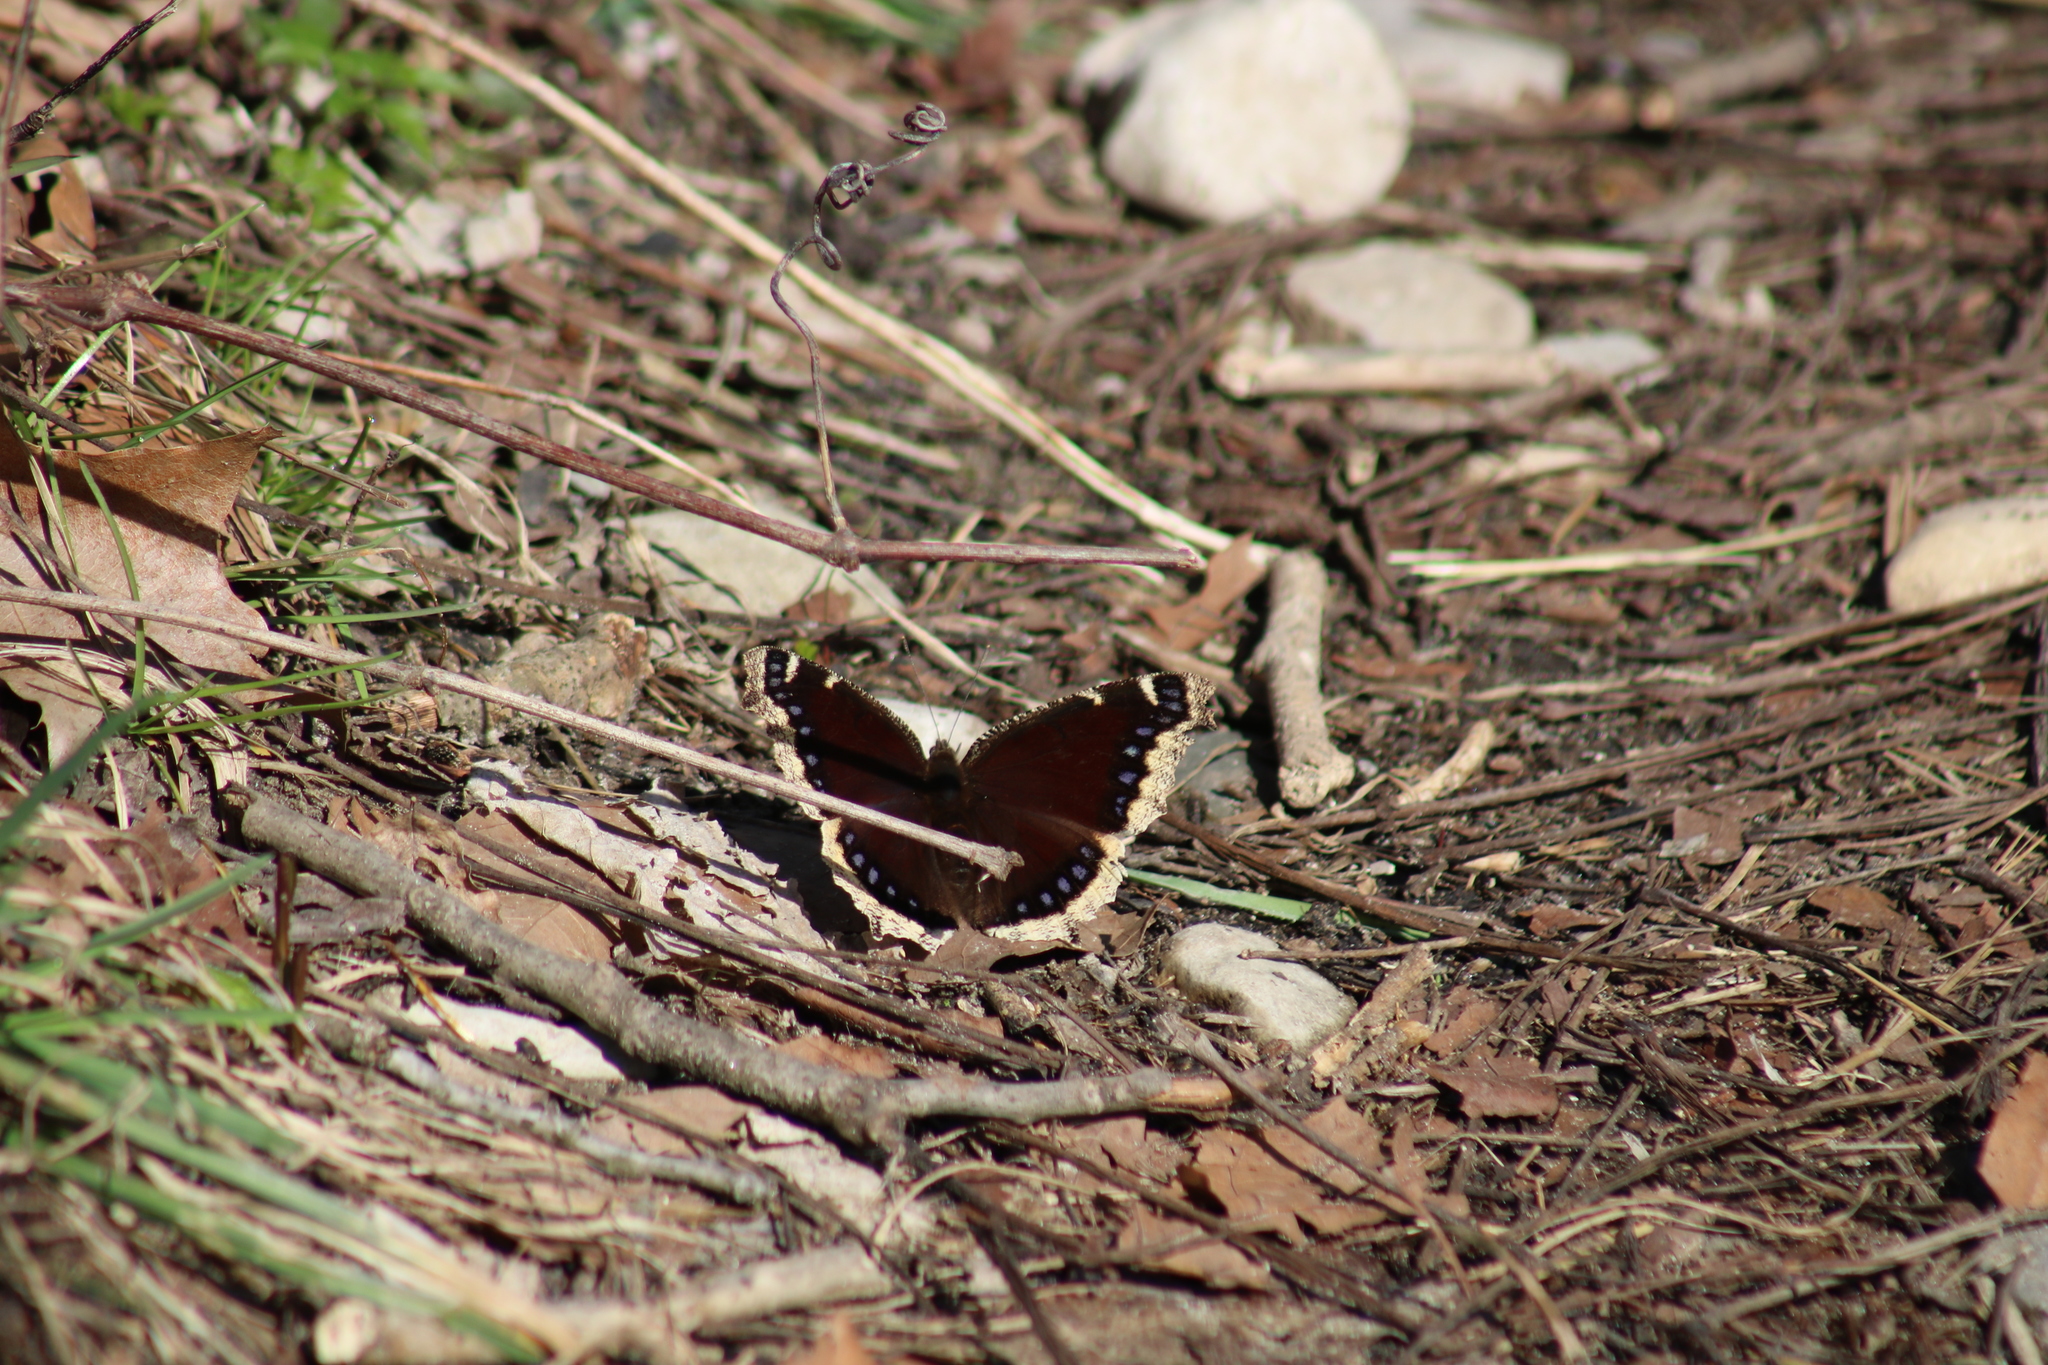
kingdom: Animalia
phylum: Arthropoda
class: Insecta
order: Lepidoptera
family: Nymphalidae
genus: Nymphalis
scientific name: Nymphalis antiopa
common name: Camberwell beauty
